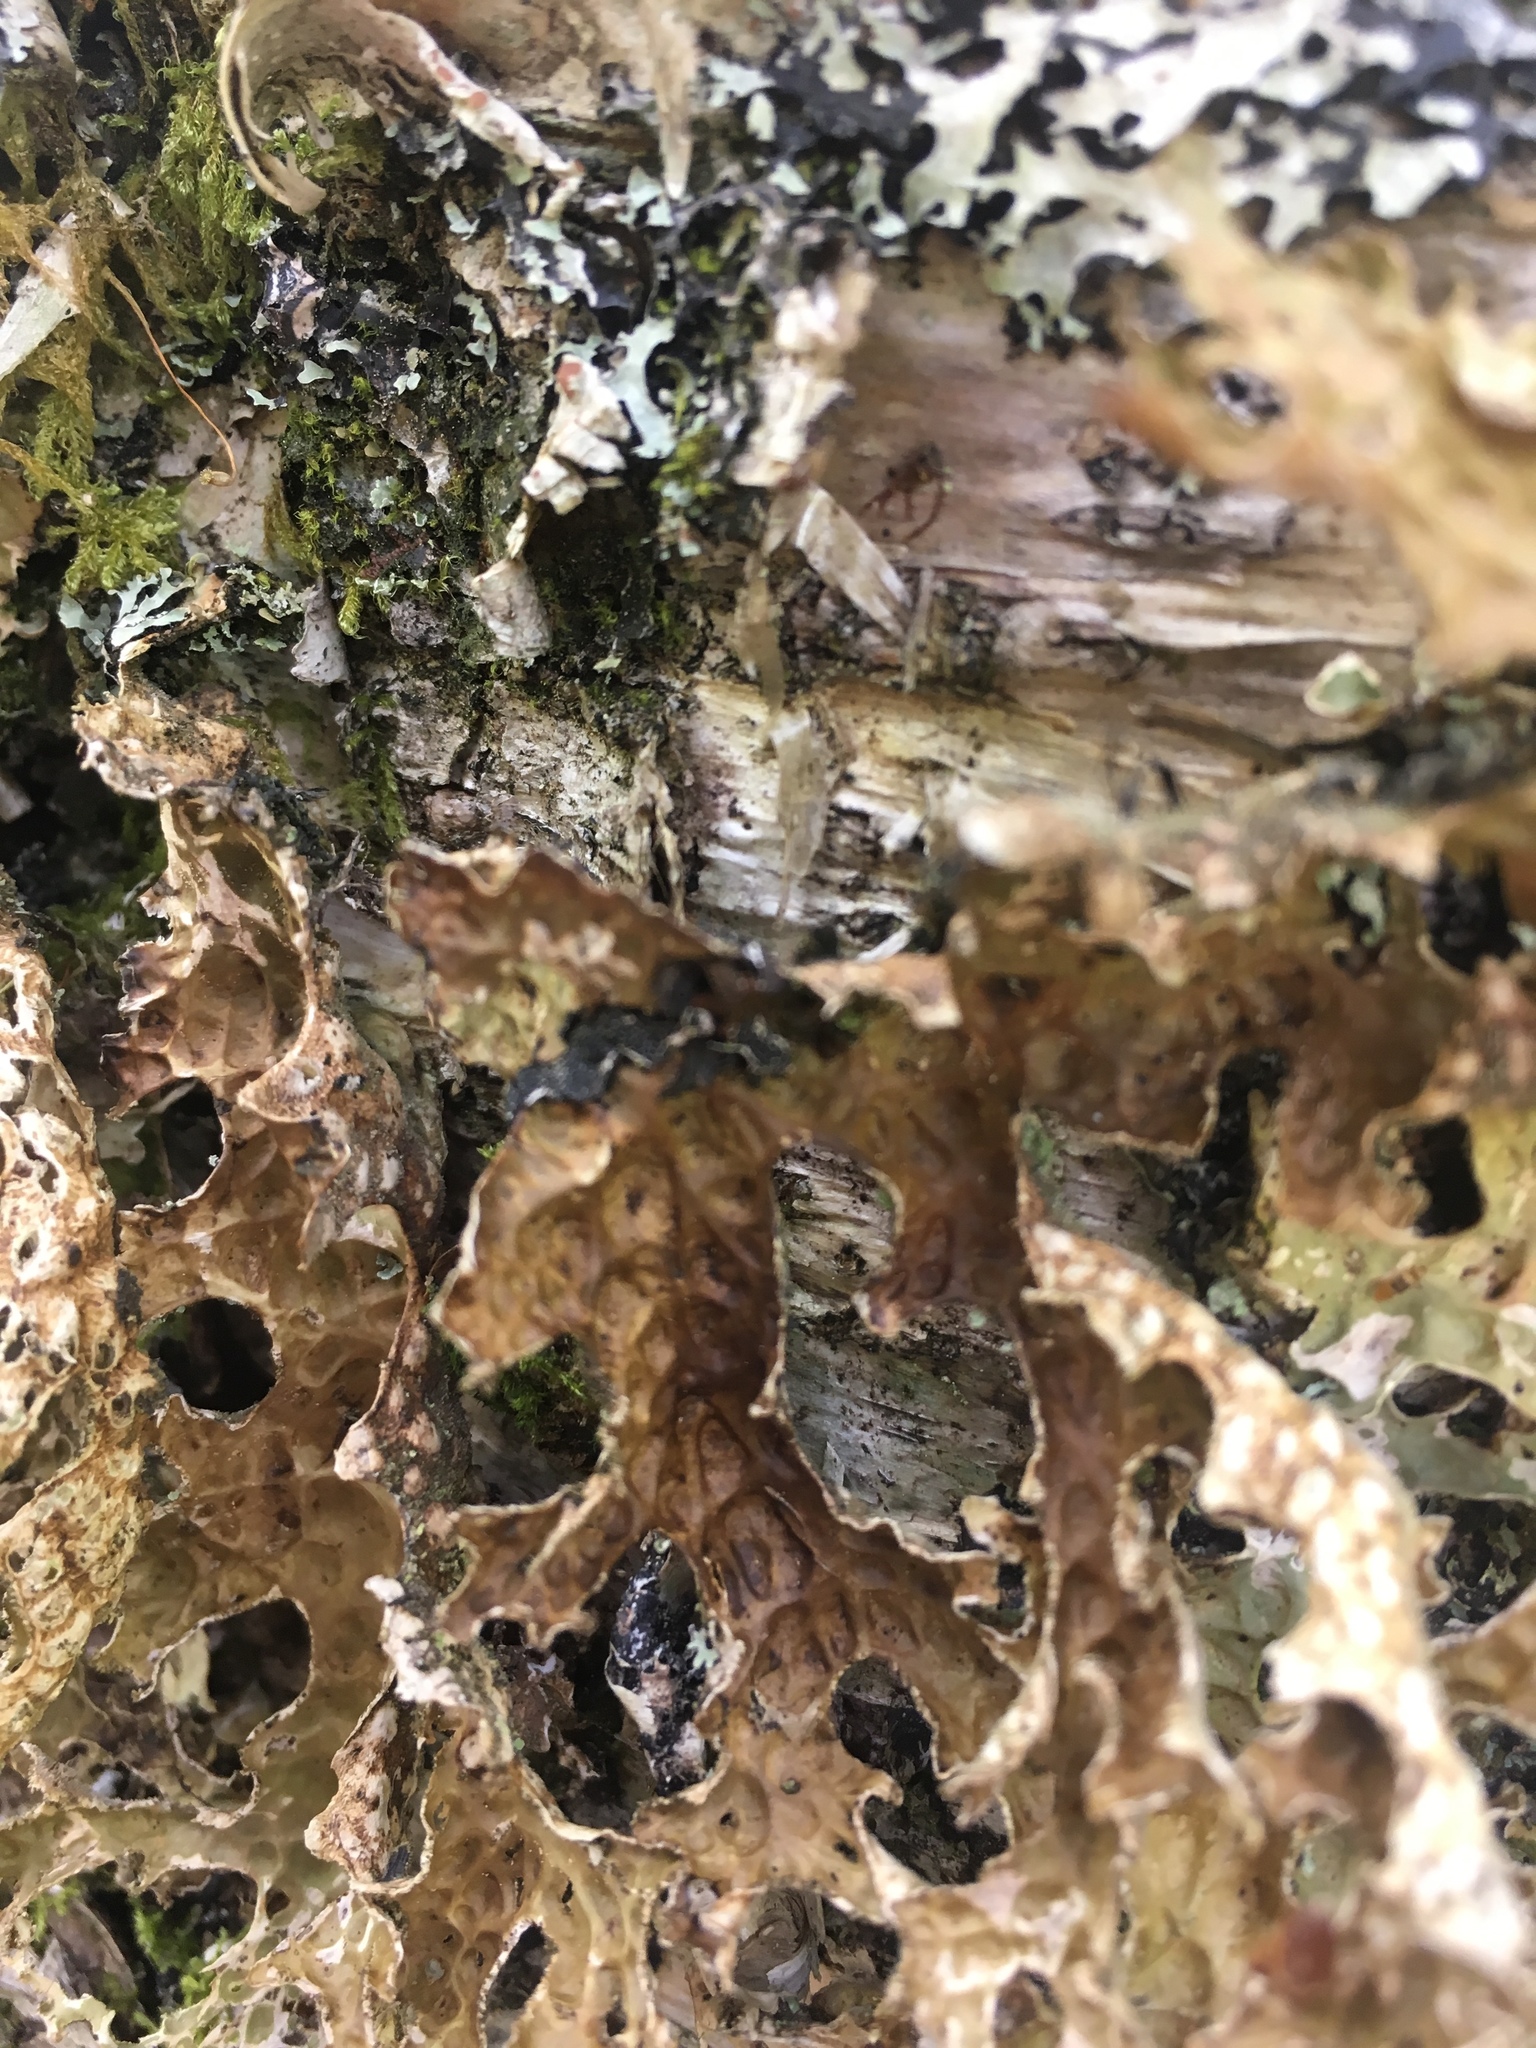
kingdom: Fungi
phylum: Ascomycota
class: Lecanoromycetes
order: Peltigerales
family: Lobariaceae
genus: Lobaria
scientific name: Lobaria pulmonaria
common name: Lungwort
